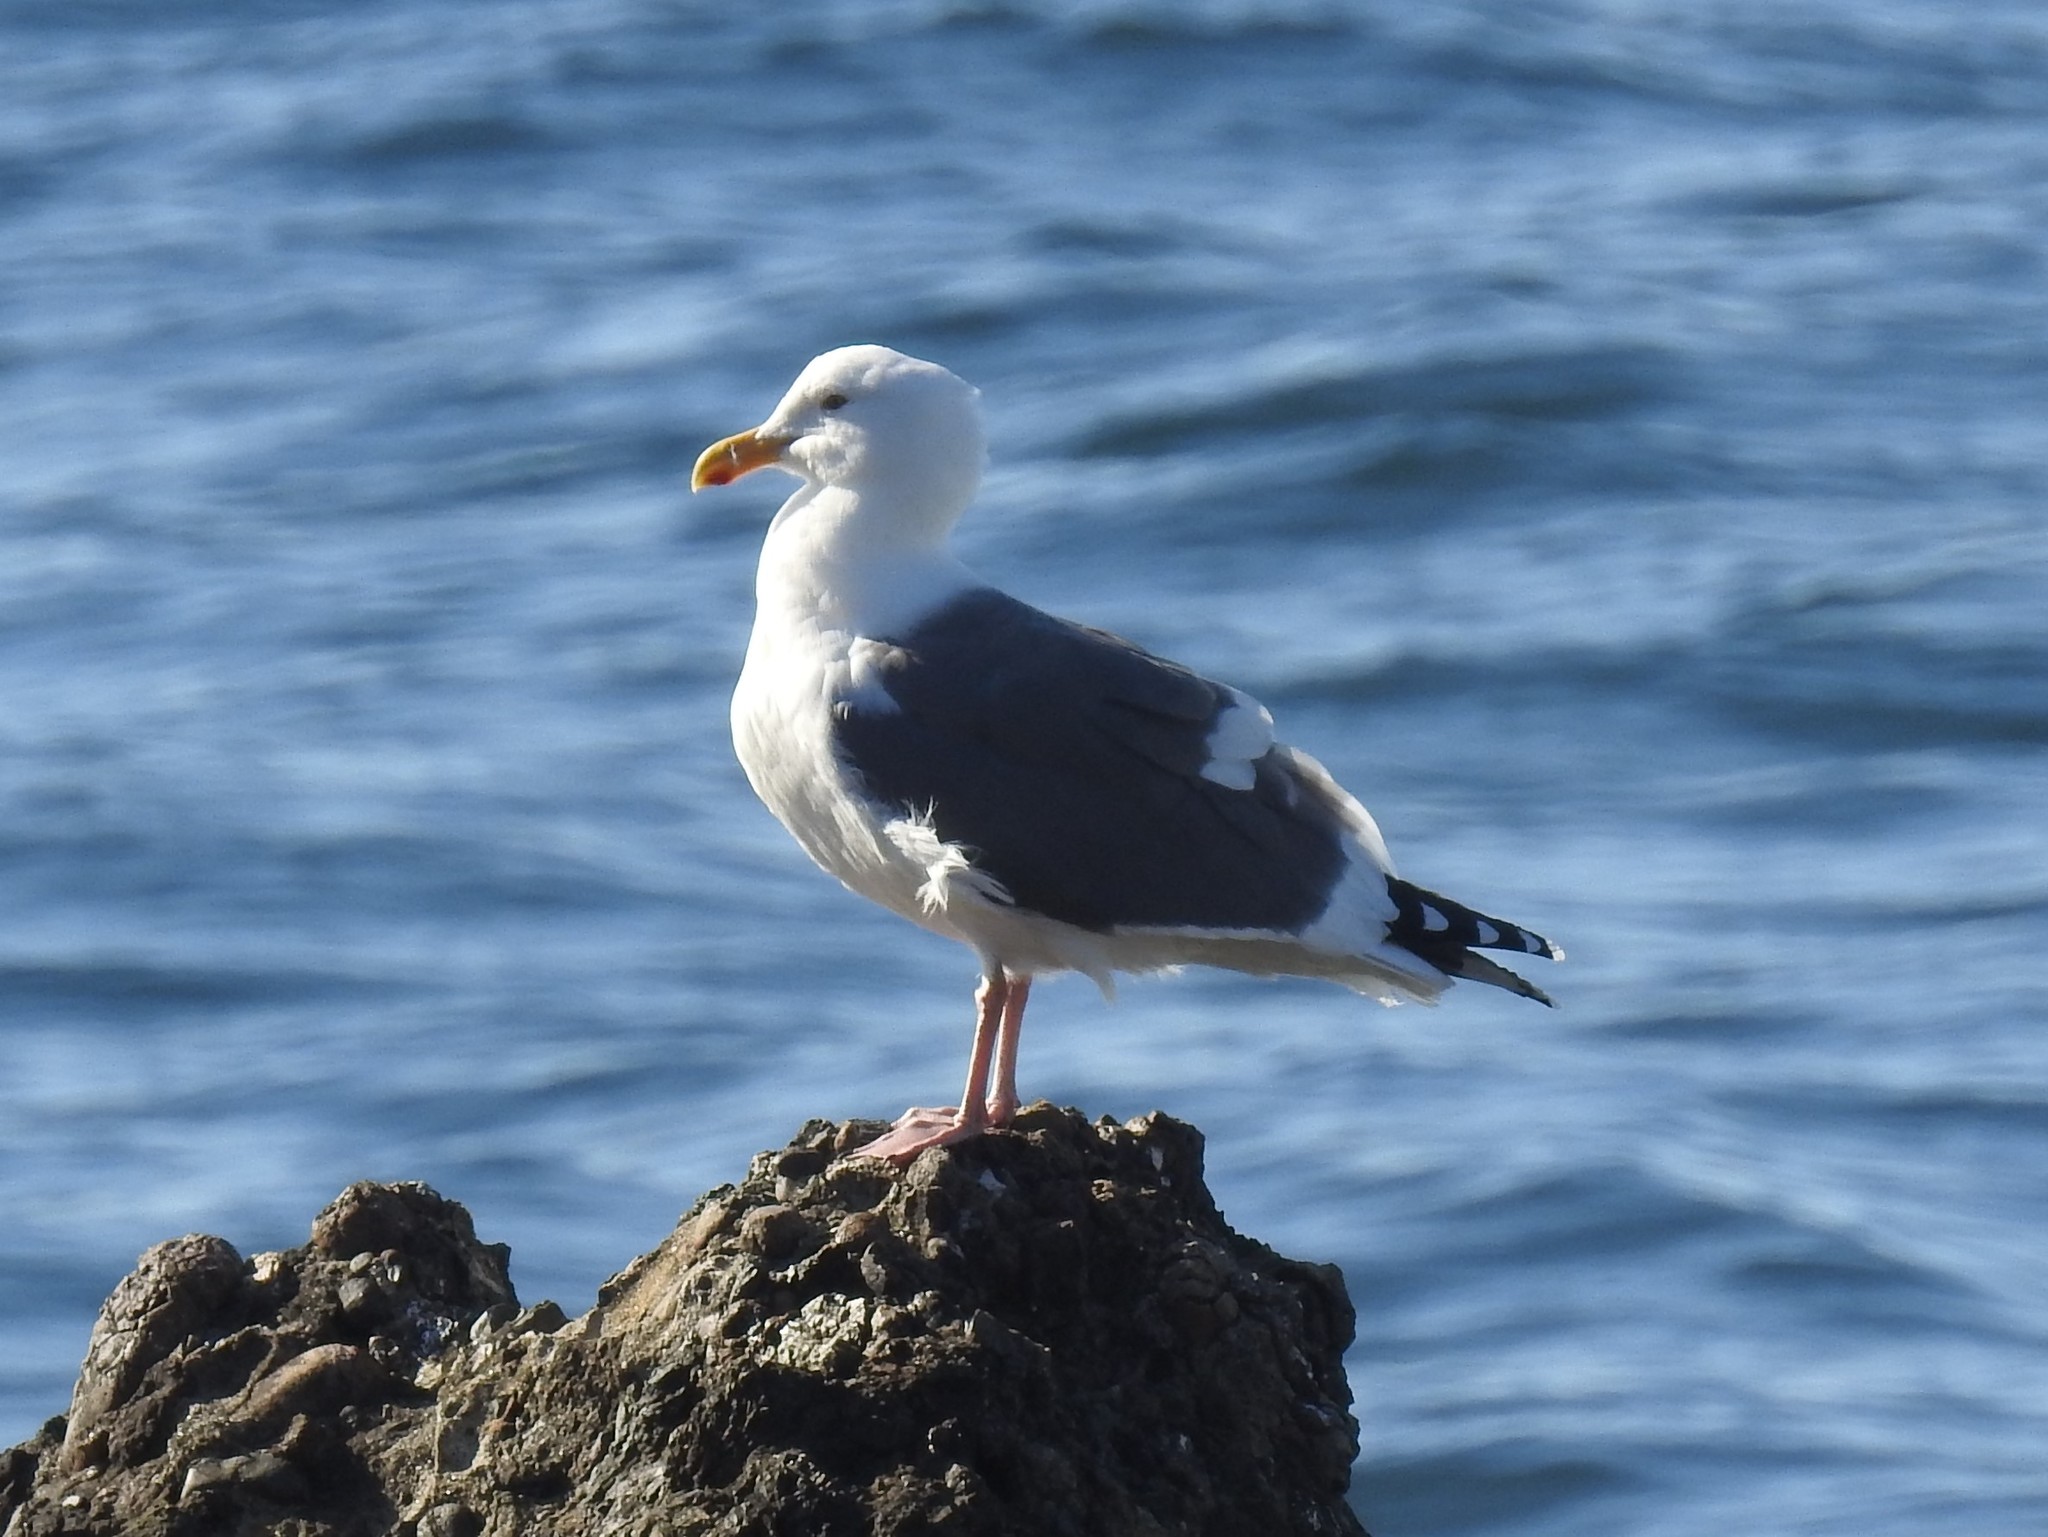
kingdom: Animalia
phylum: Chordata
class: Aves
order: Charadriiformes
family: Laridae
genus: Larus
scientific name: Larus occidentalis
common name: Western gull
